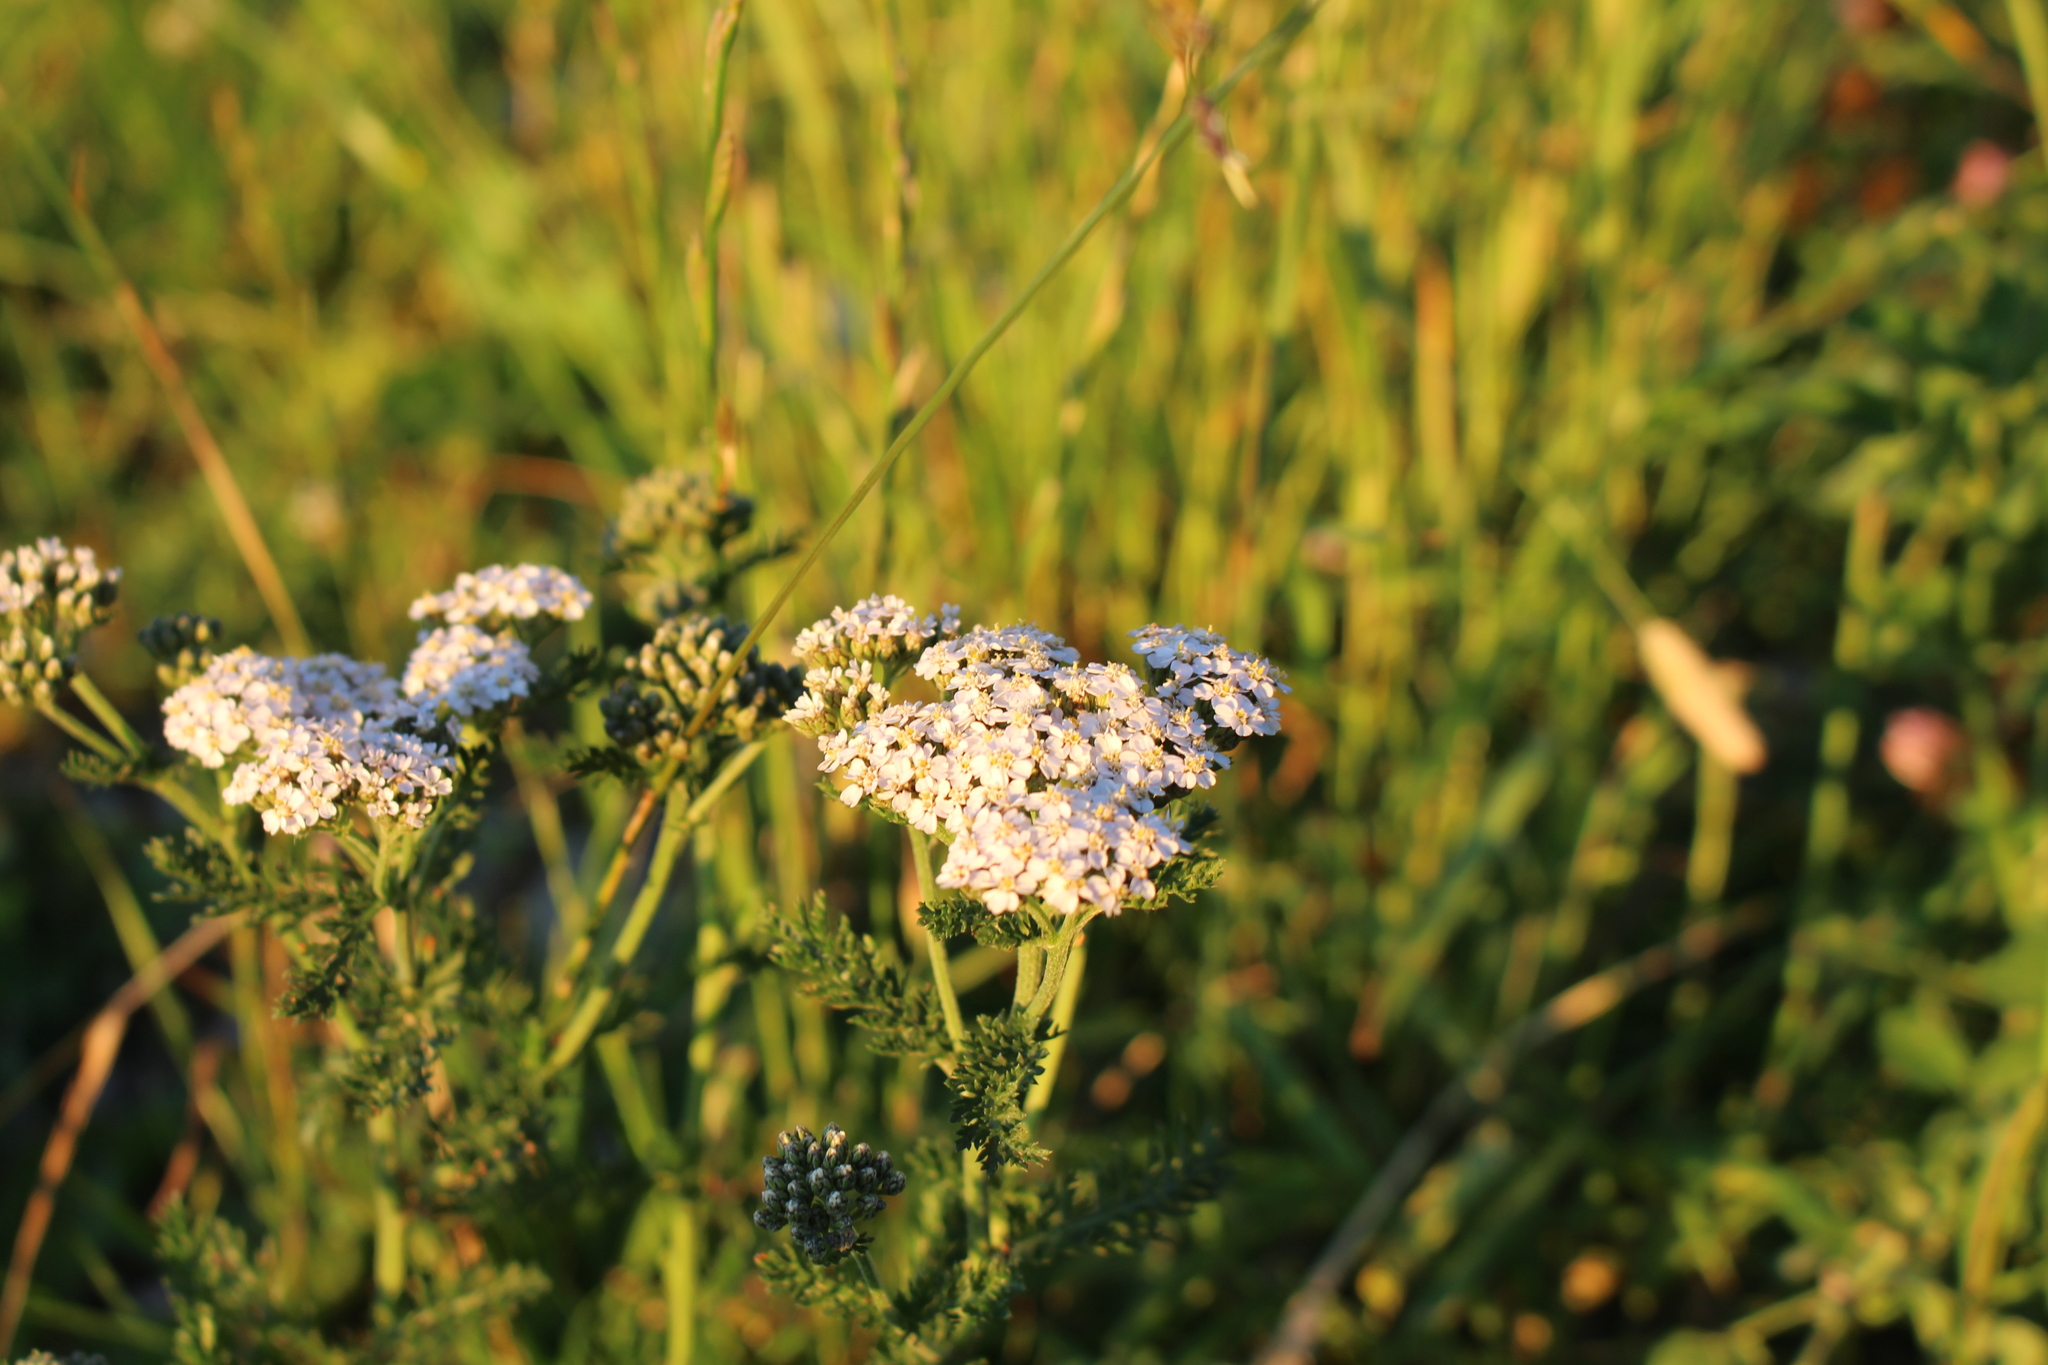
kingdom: Plantae
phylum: Tracheophyta
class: Magnoliopsida
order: Asterales
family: Asteraceae
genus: Achillea
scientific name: Achillea millefolium
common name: Yarrow
